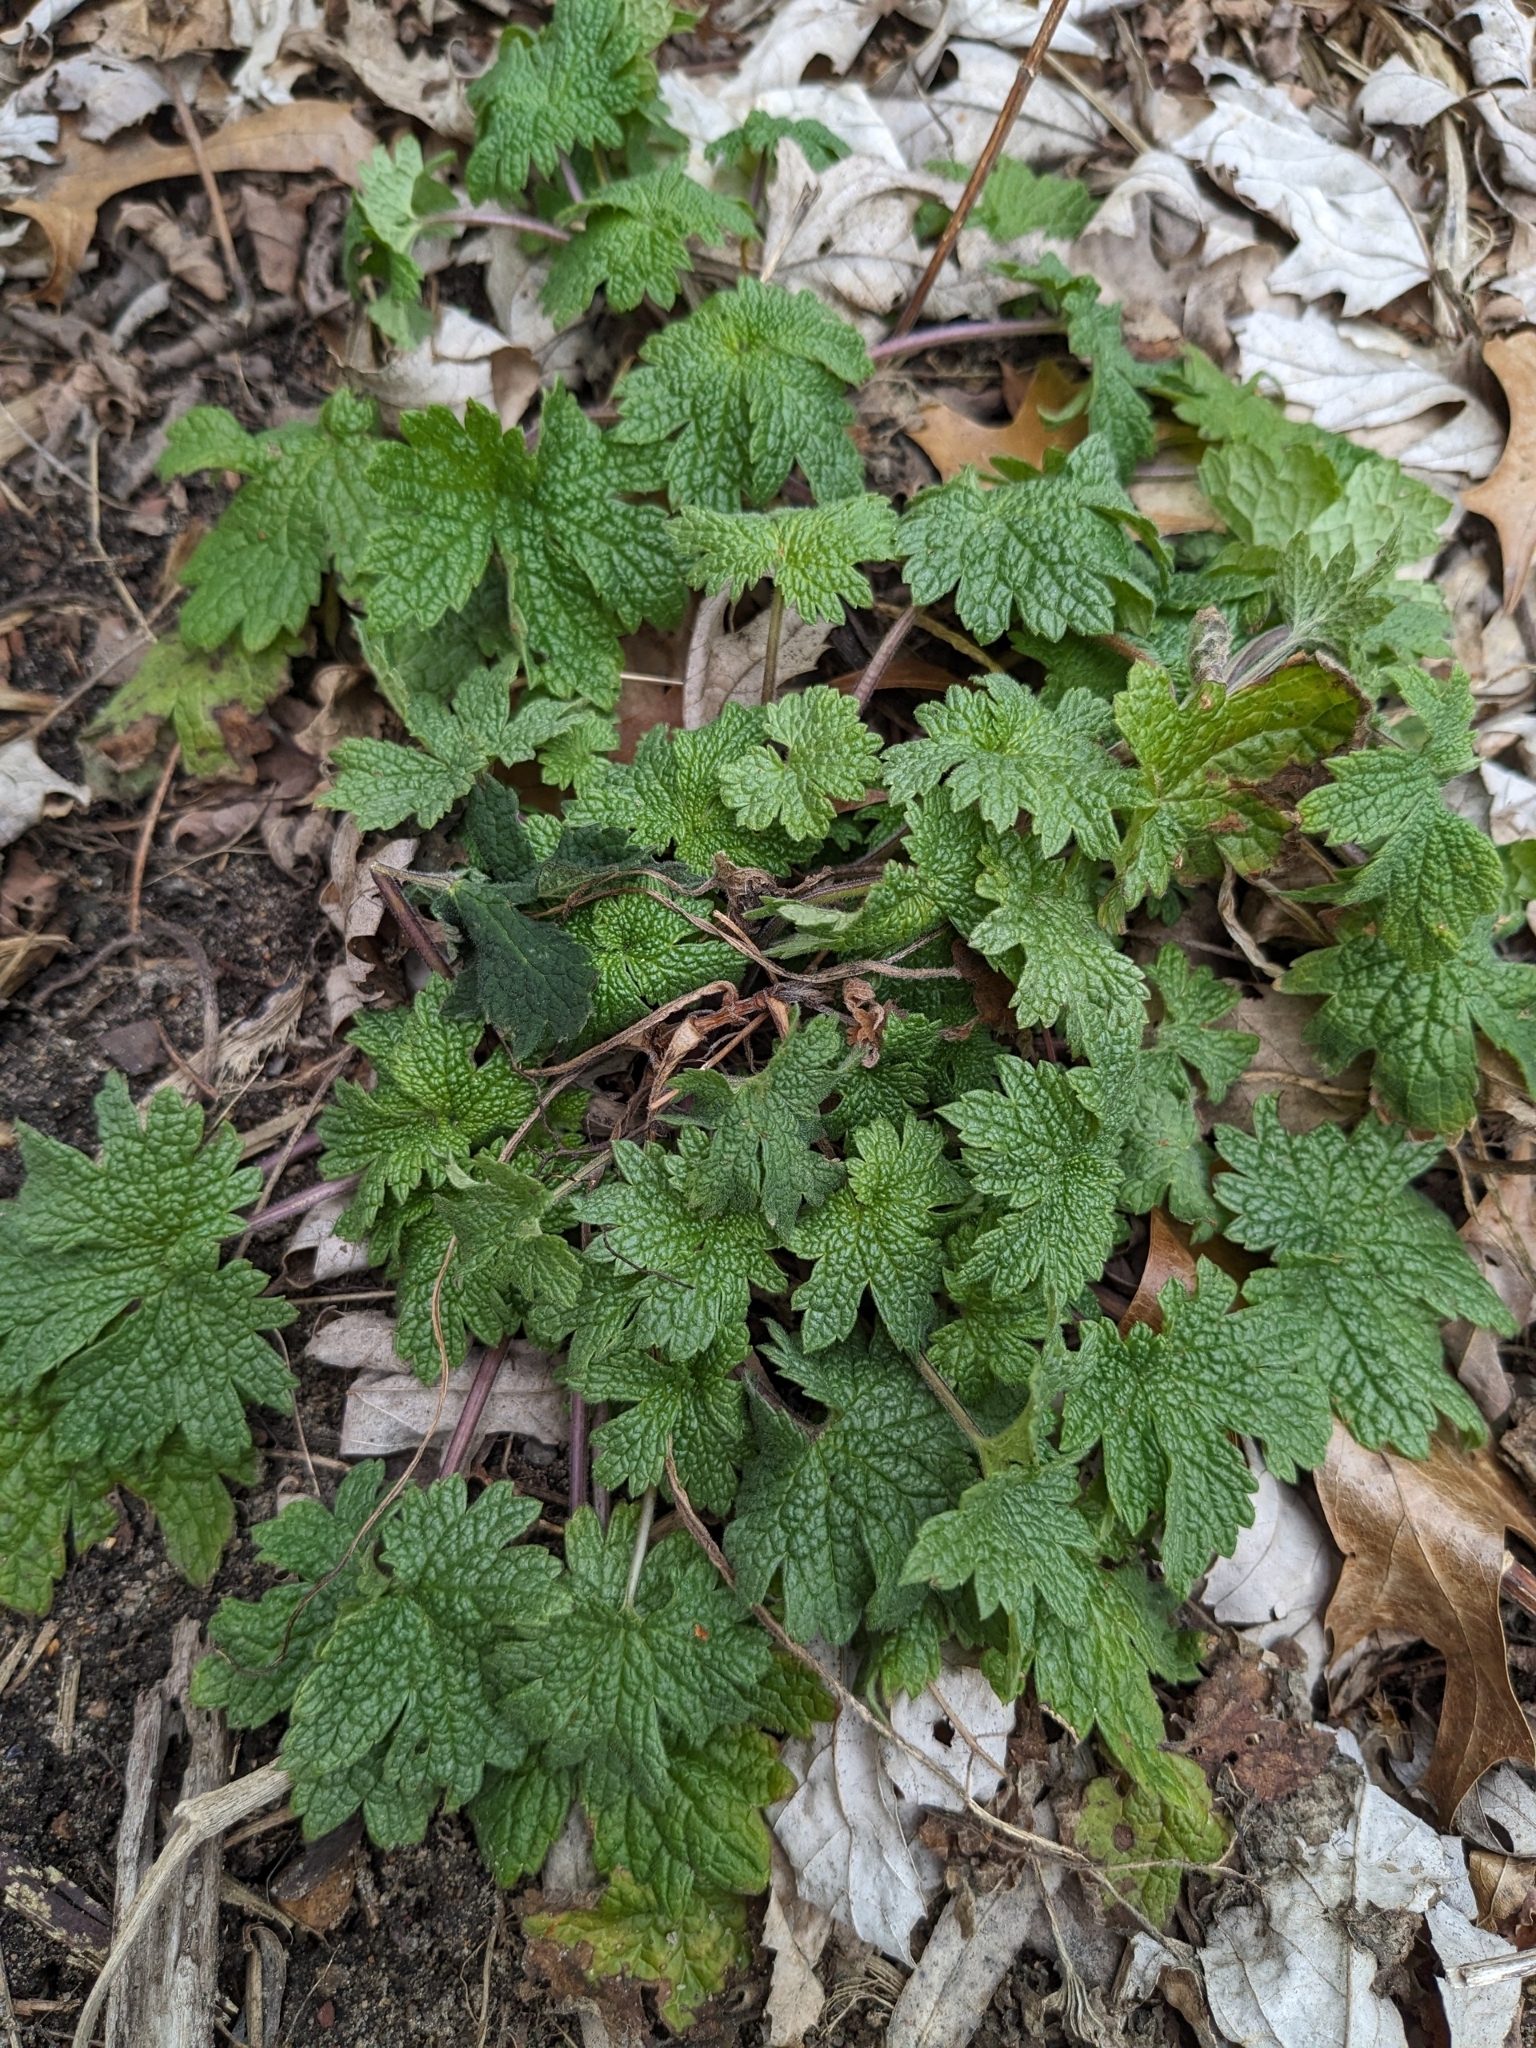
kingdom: Plantae
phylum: Tracheophyta
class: Magnoliopsida
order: Lamiales
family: Lamiaceae
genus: Leonurus
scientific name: Leonurus cardiaca
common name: Motherwort
